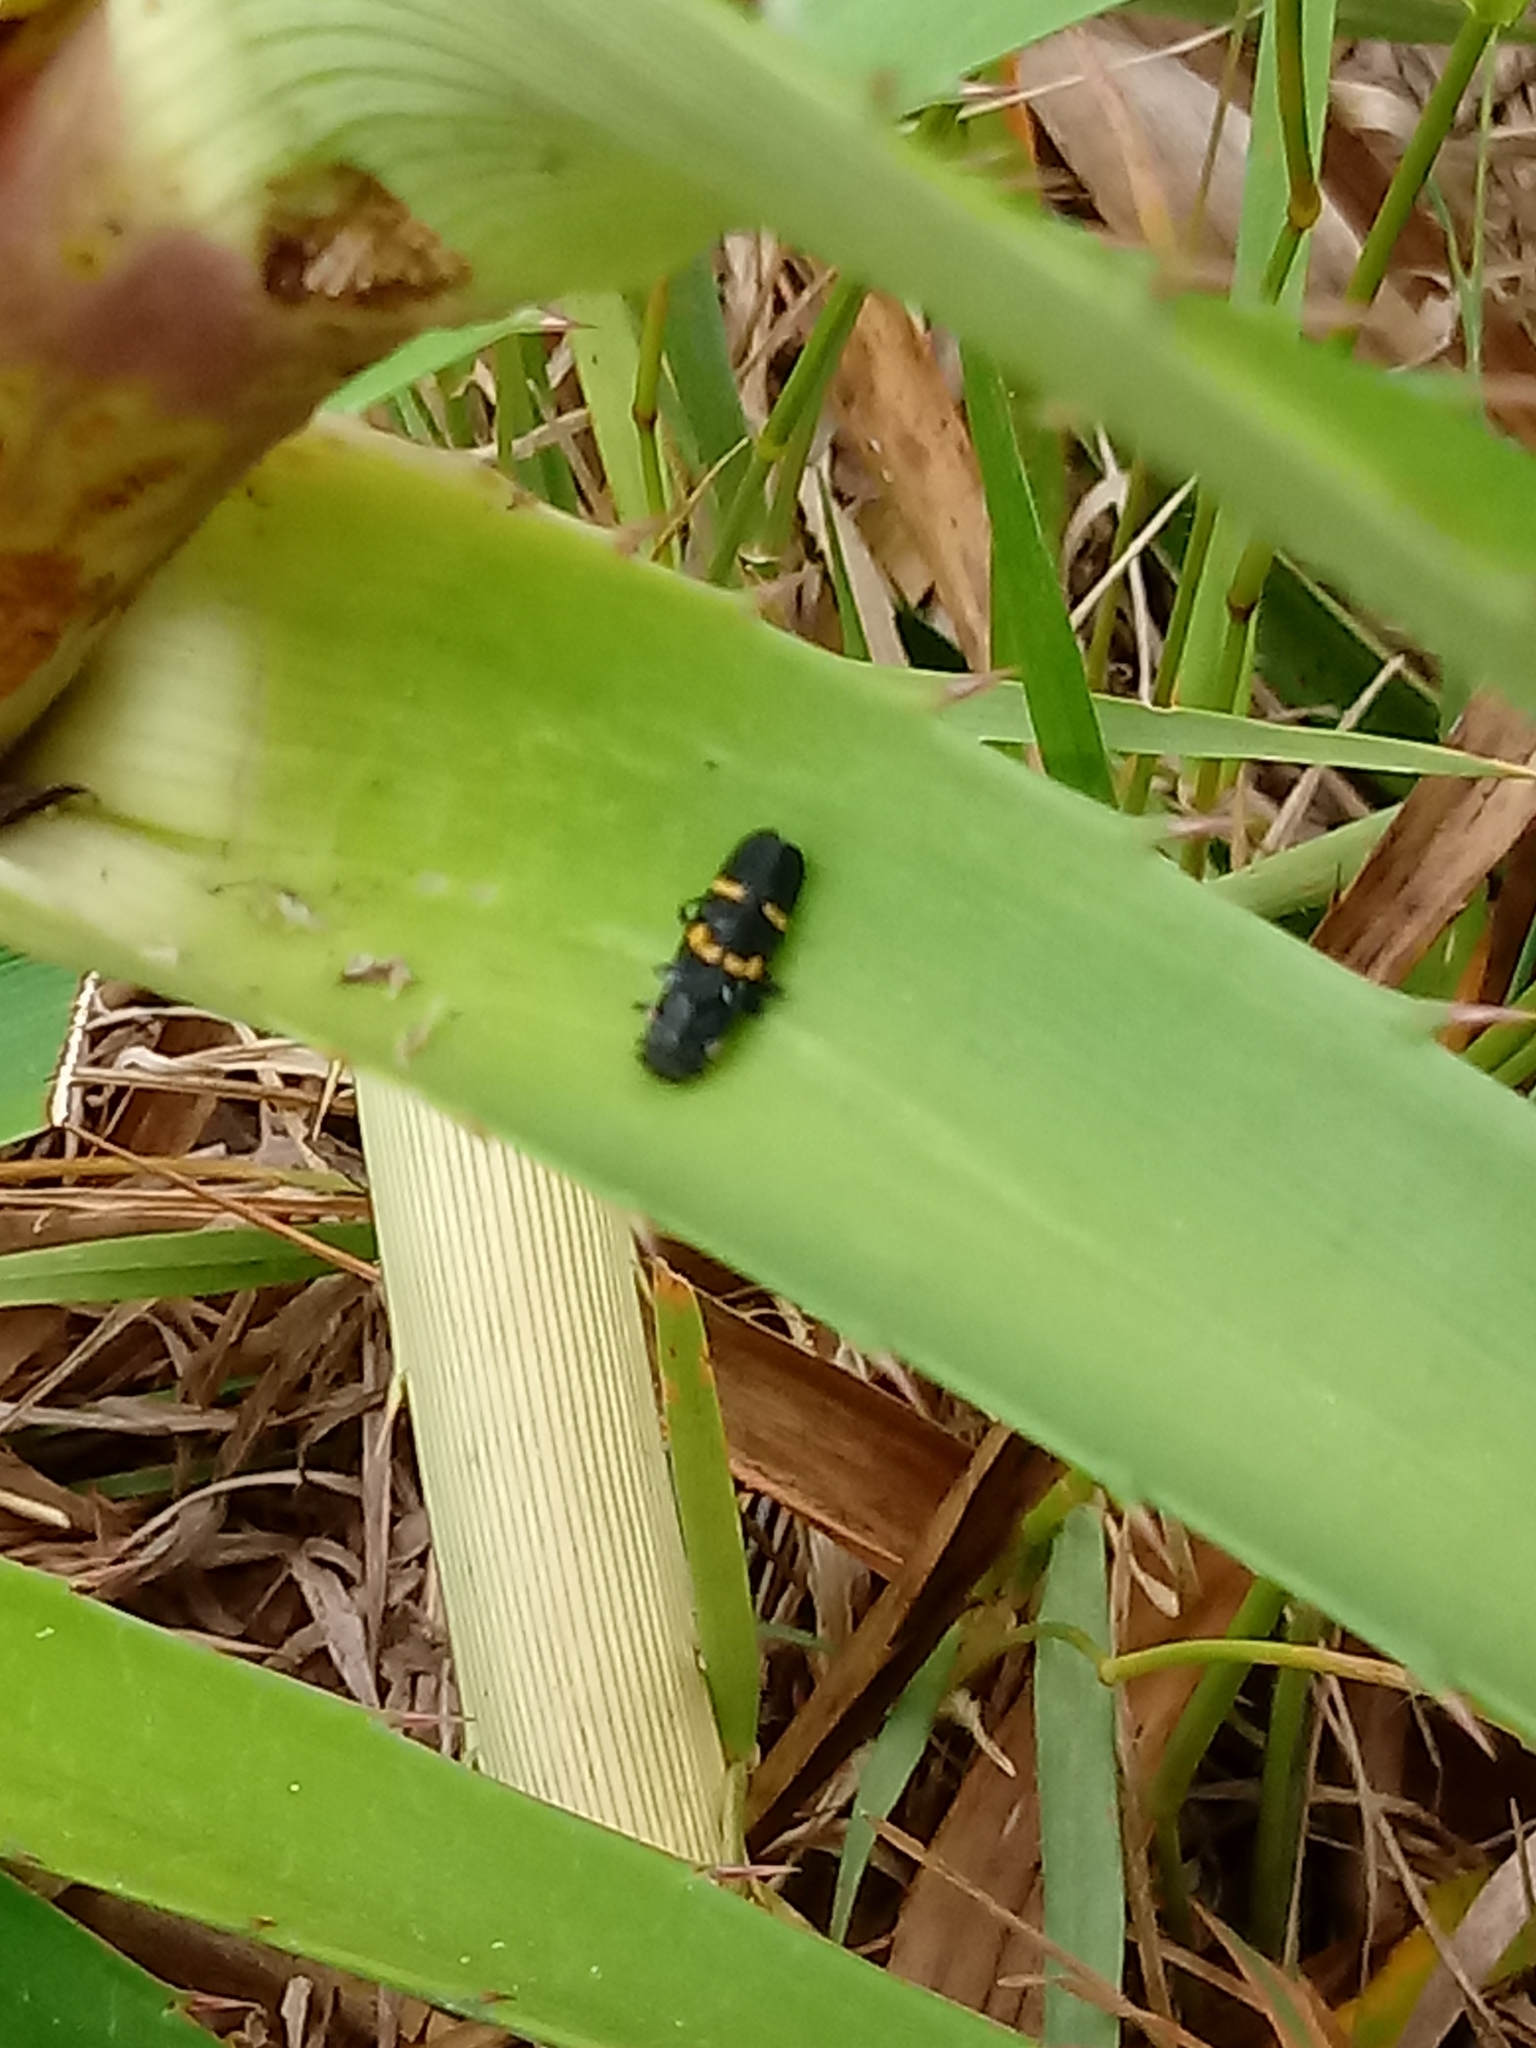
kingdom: Animalia
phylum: Arthropoda
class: Insecta
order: Hemiptera
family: Cicadellidae
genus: Ochrostacta
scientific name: Ochrostacta diadema
